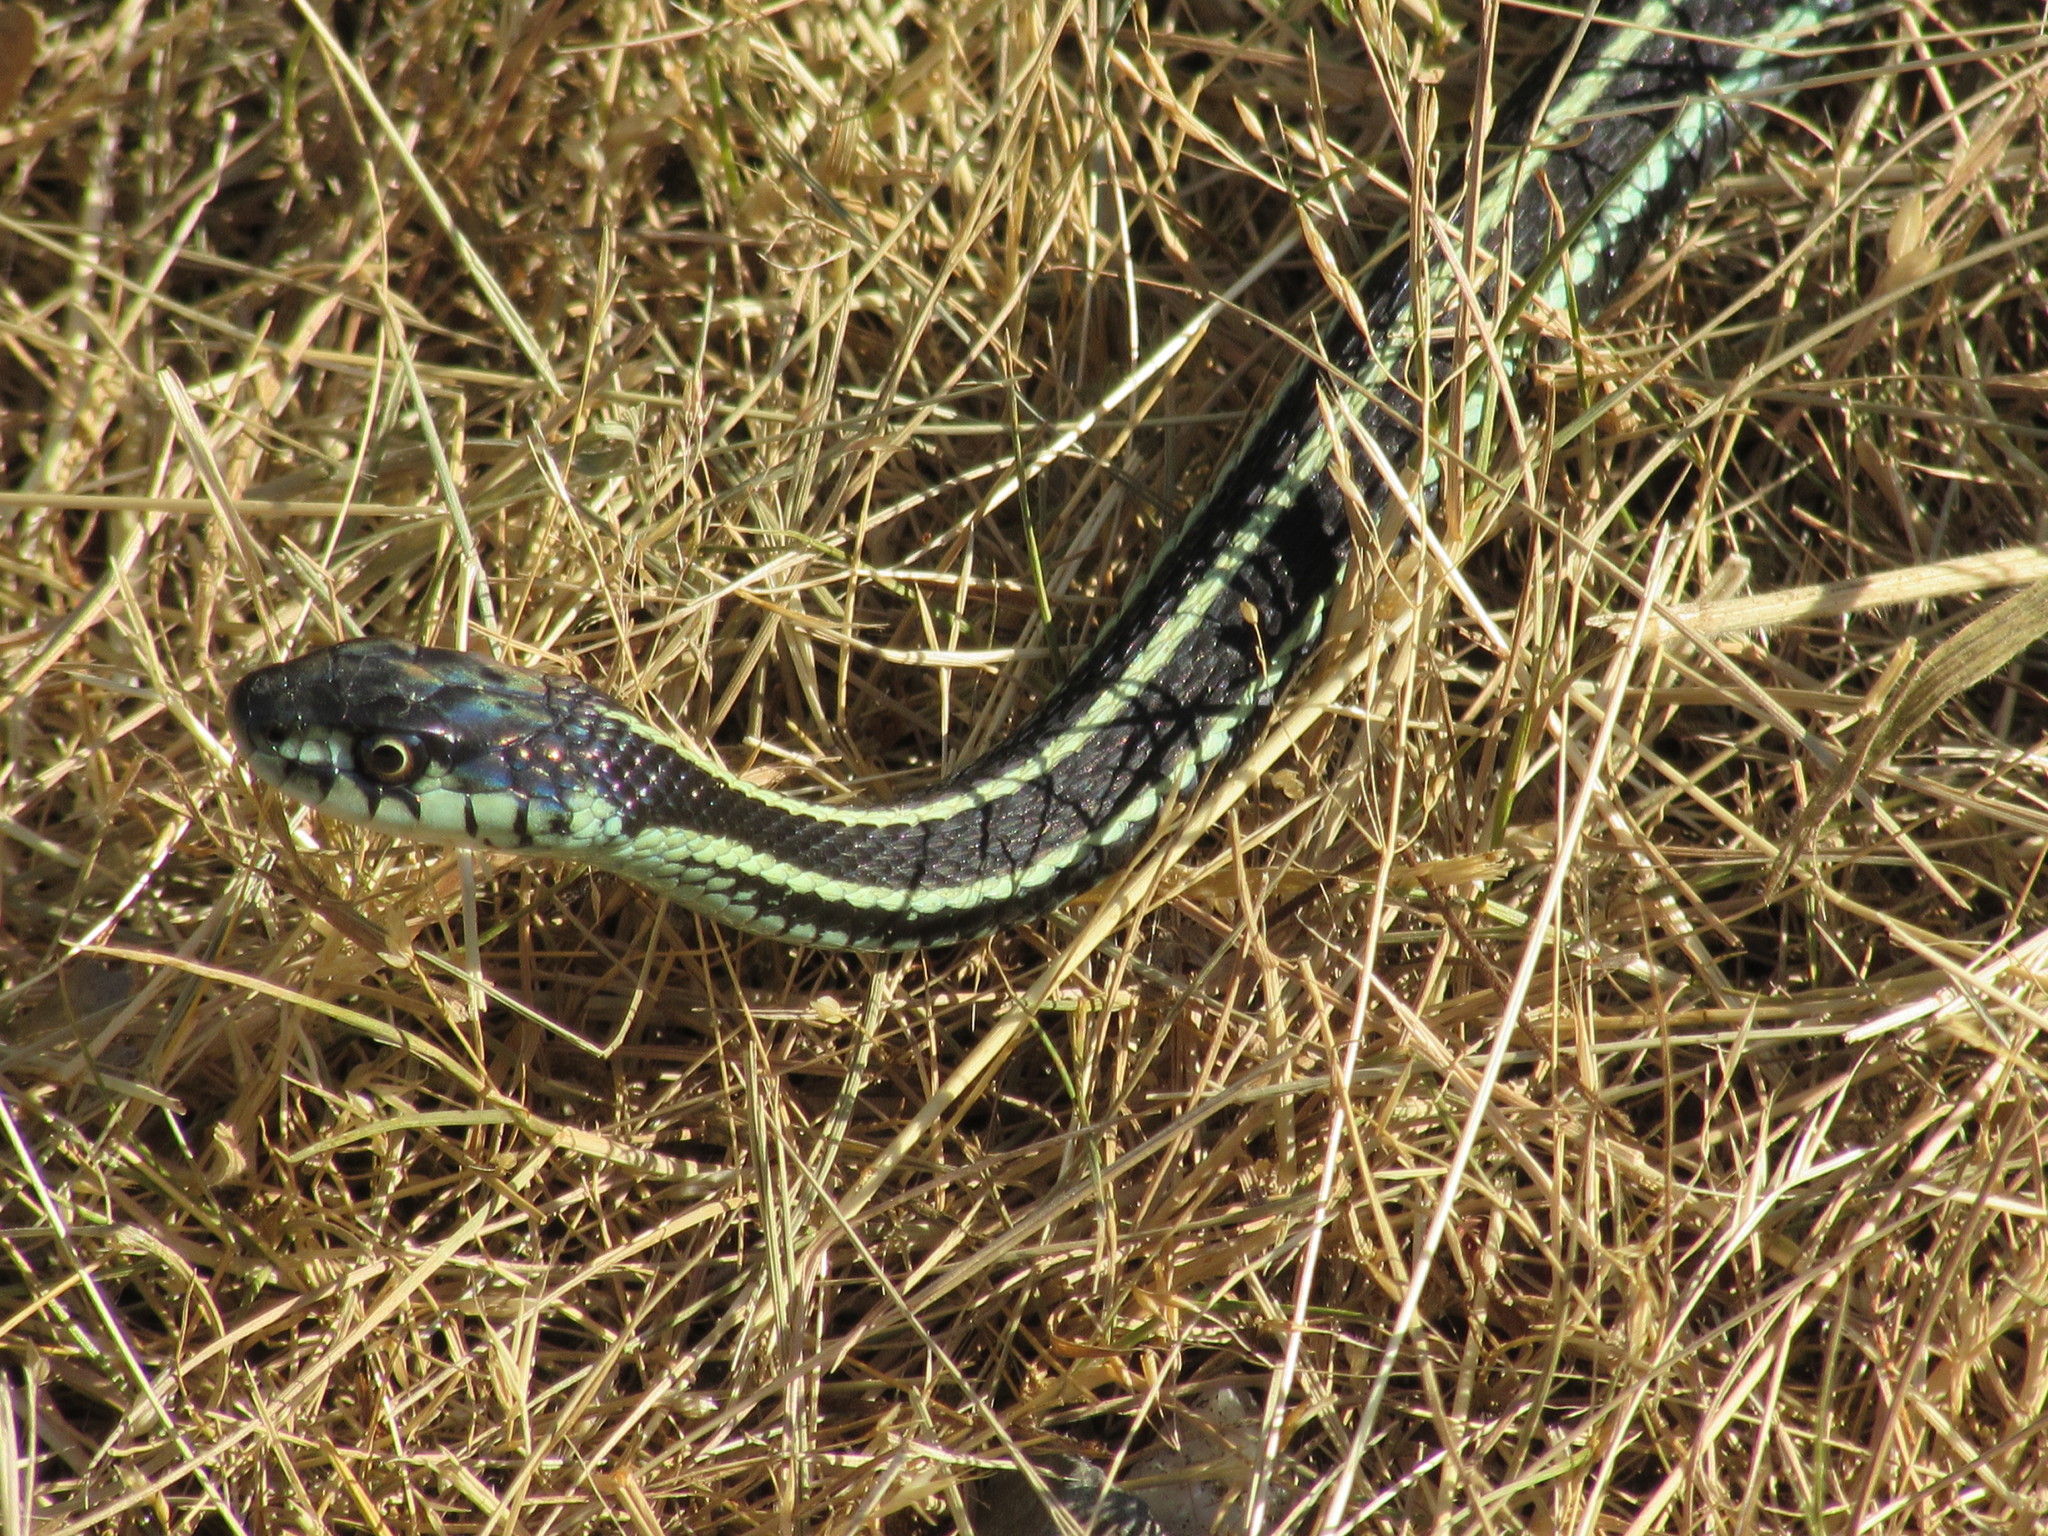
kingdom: Animalia
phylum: Chordata
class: Squamata
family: Colubridae
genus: Thamnophis
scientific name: Thamnophis sirtalis
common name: Common garter snake
